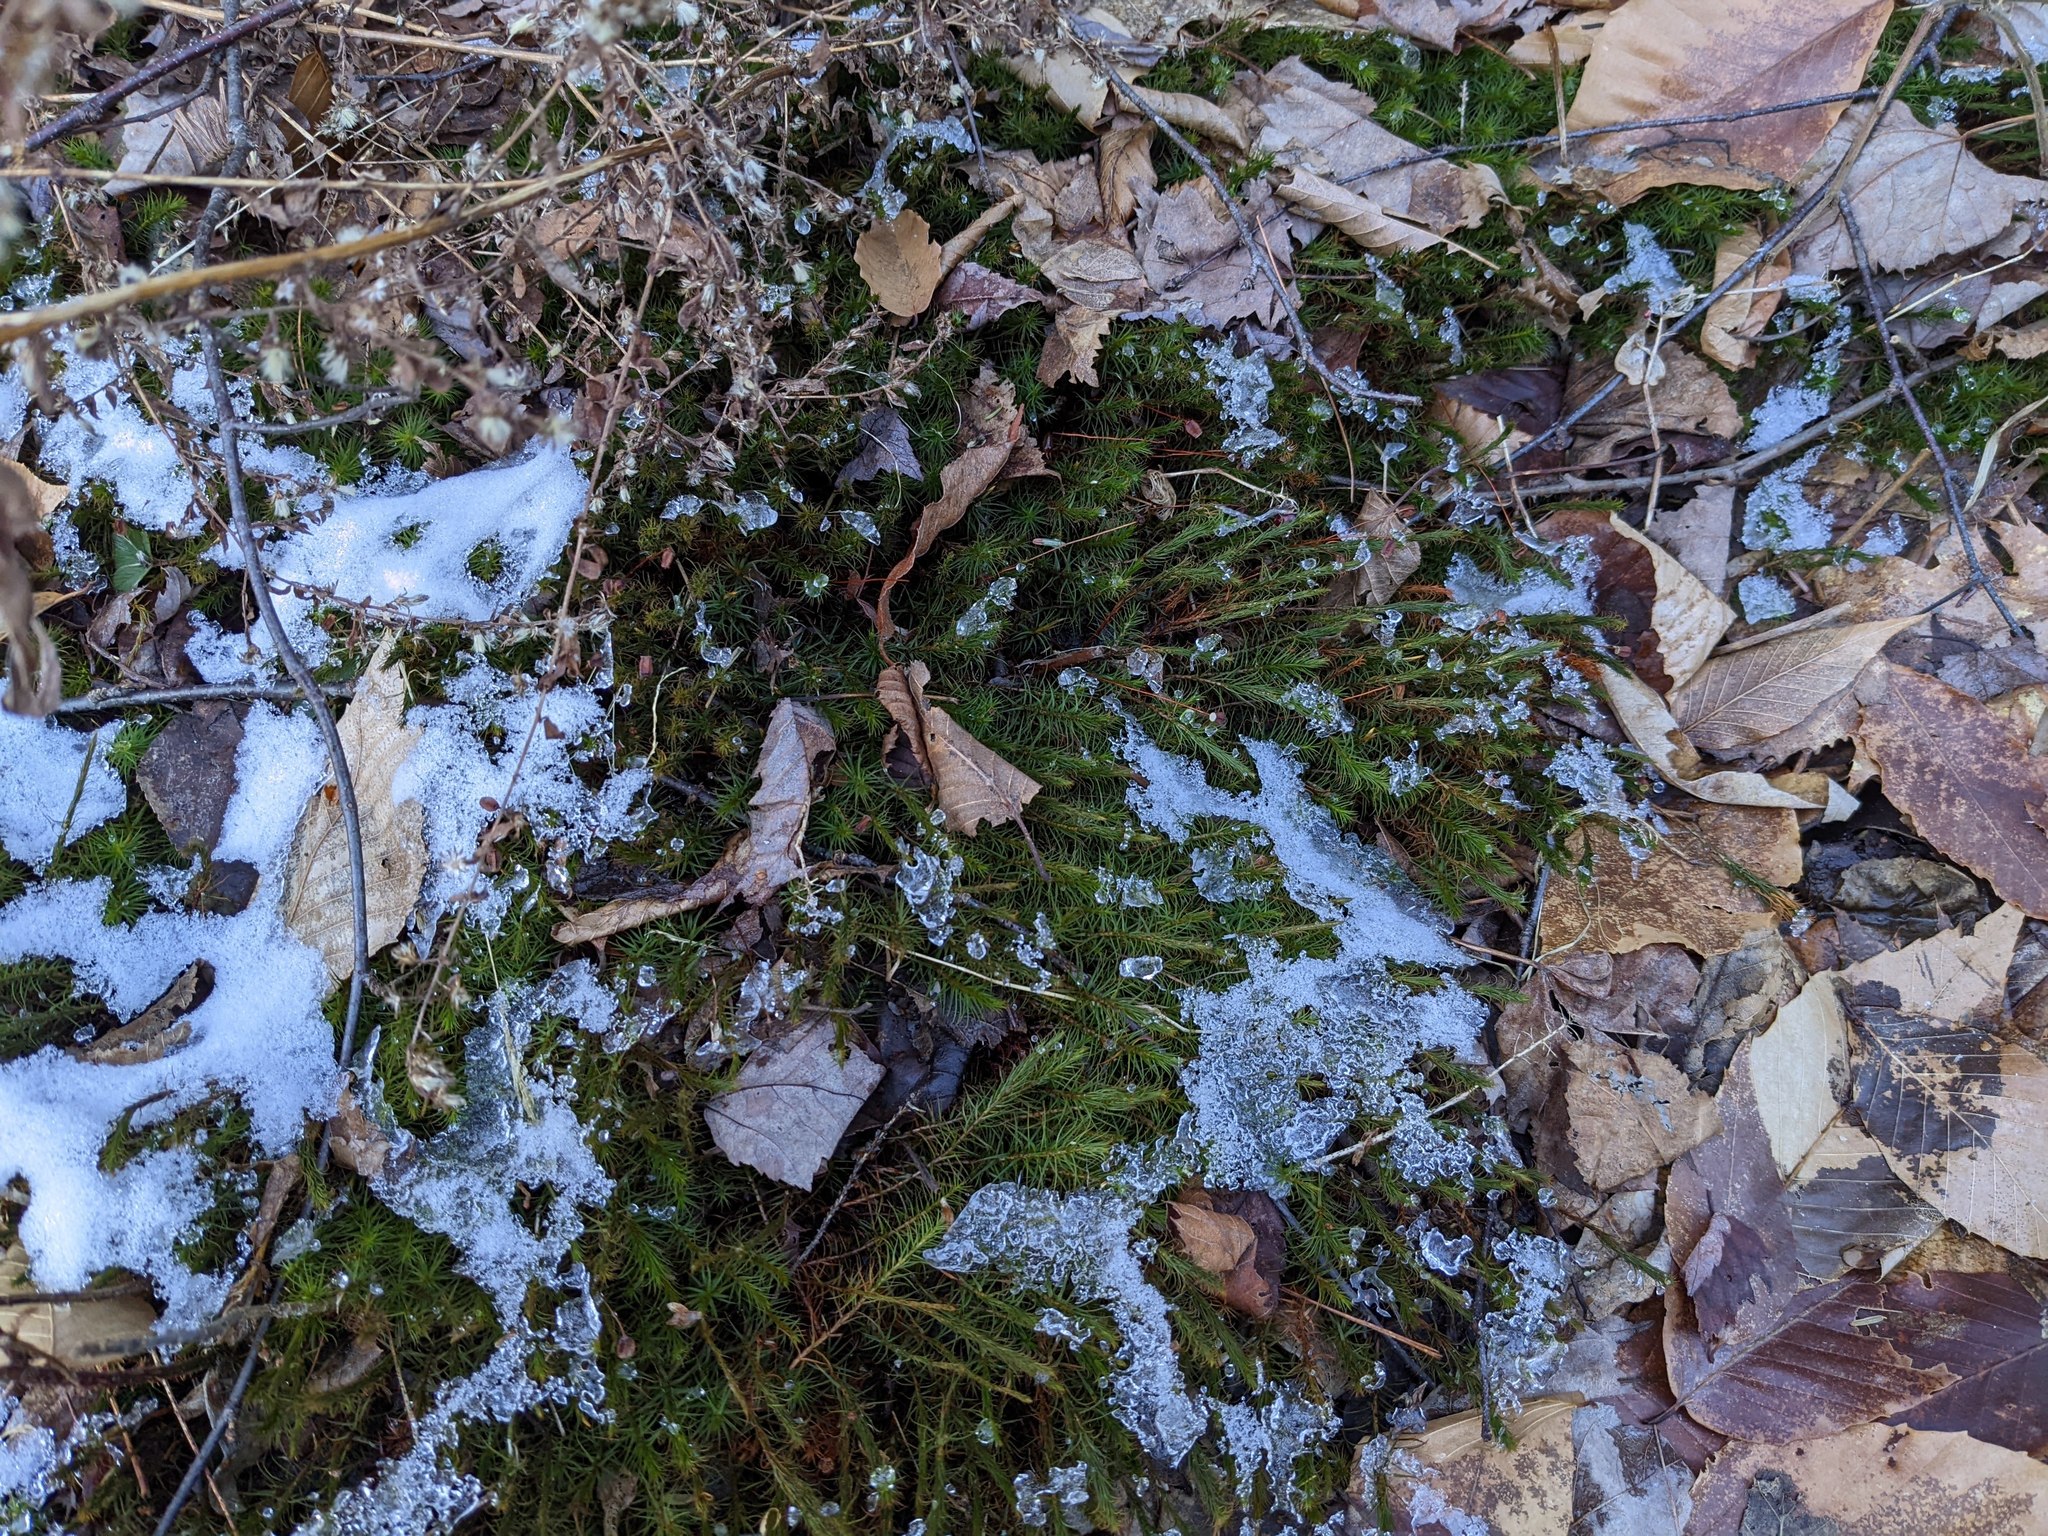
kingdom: Plantae
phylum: Tracheophyta
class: Magnoliopsida
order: Fagales
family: Fagaceae
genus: Fagus
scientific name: Fagus grandifolia
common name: American beech
